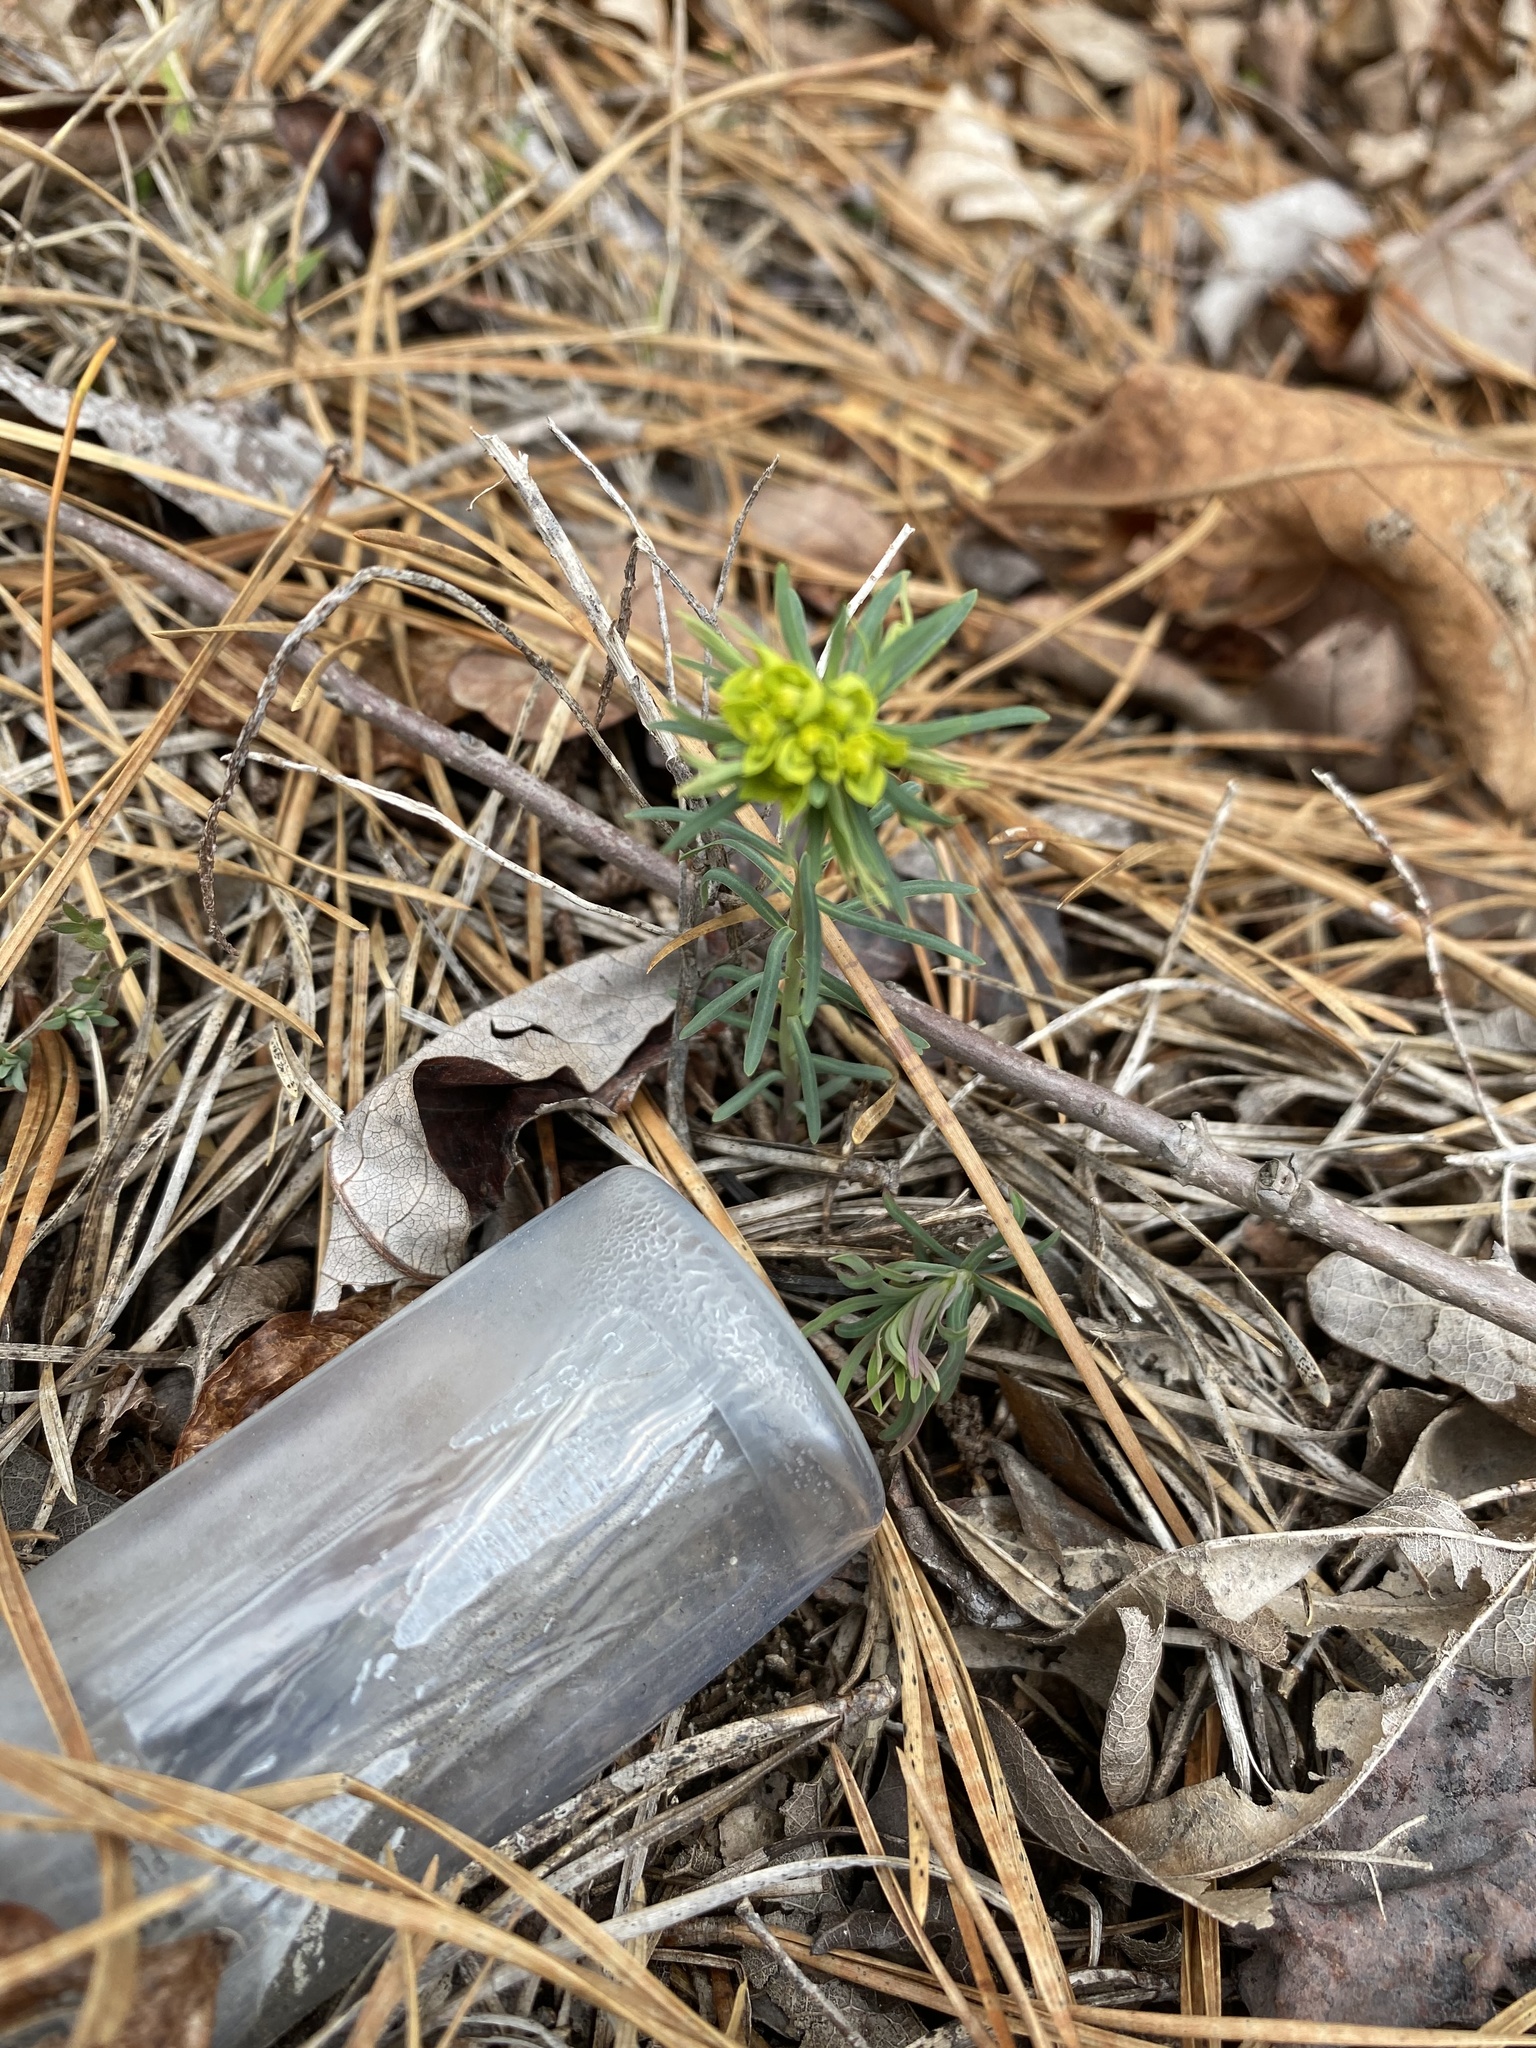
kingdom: Plantae
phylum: Tracheophyta
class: Magnoliopsida
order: Malpighiales
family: Euphorbiaceae
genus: Euphorbia
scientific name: Euphorbia cyparissias
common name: Cypress spurge
